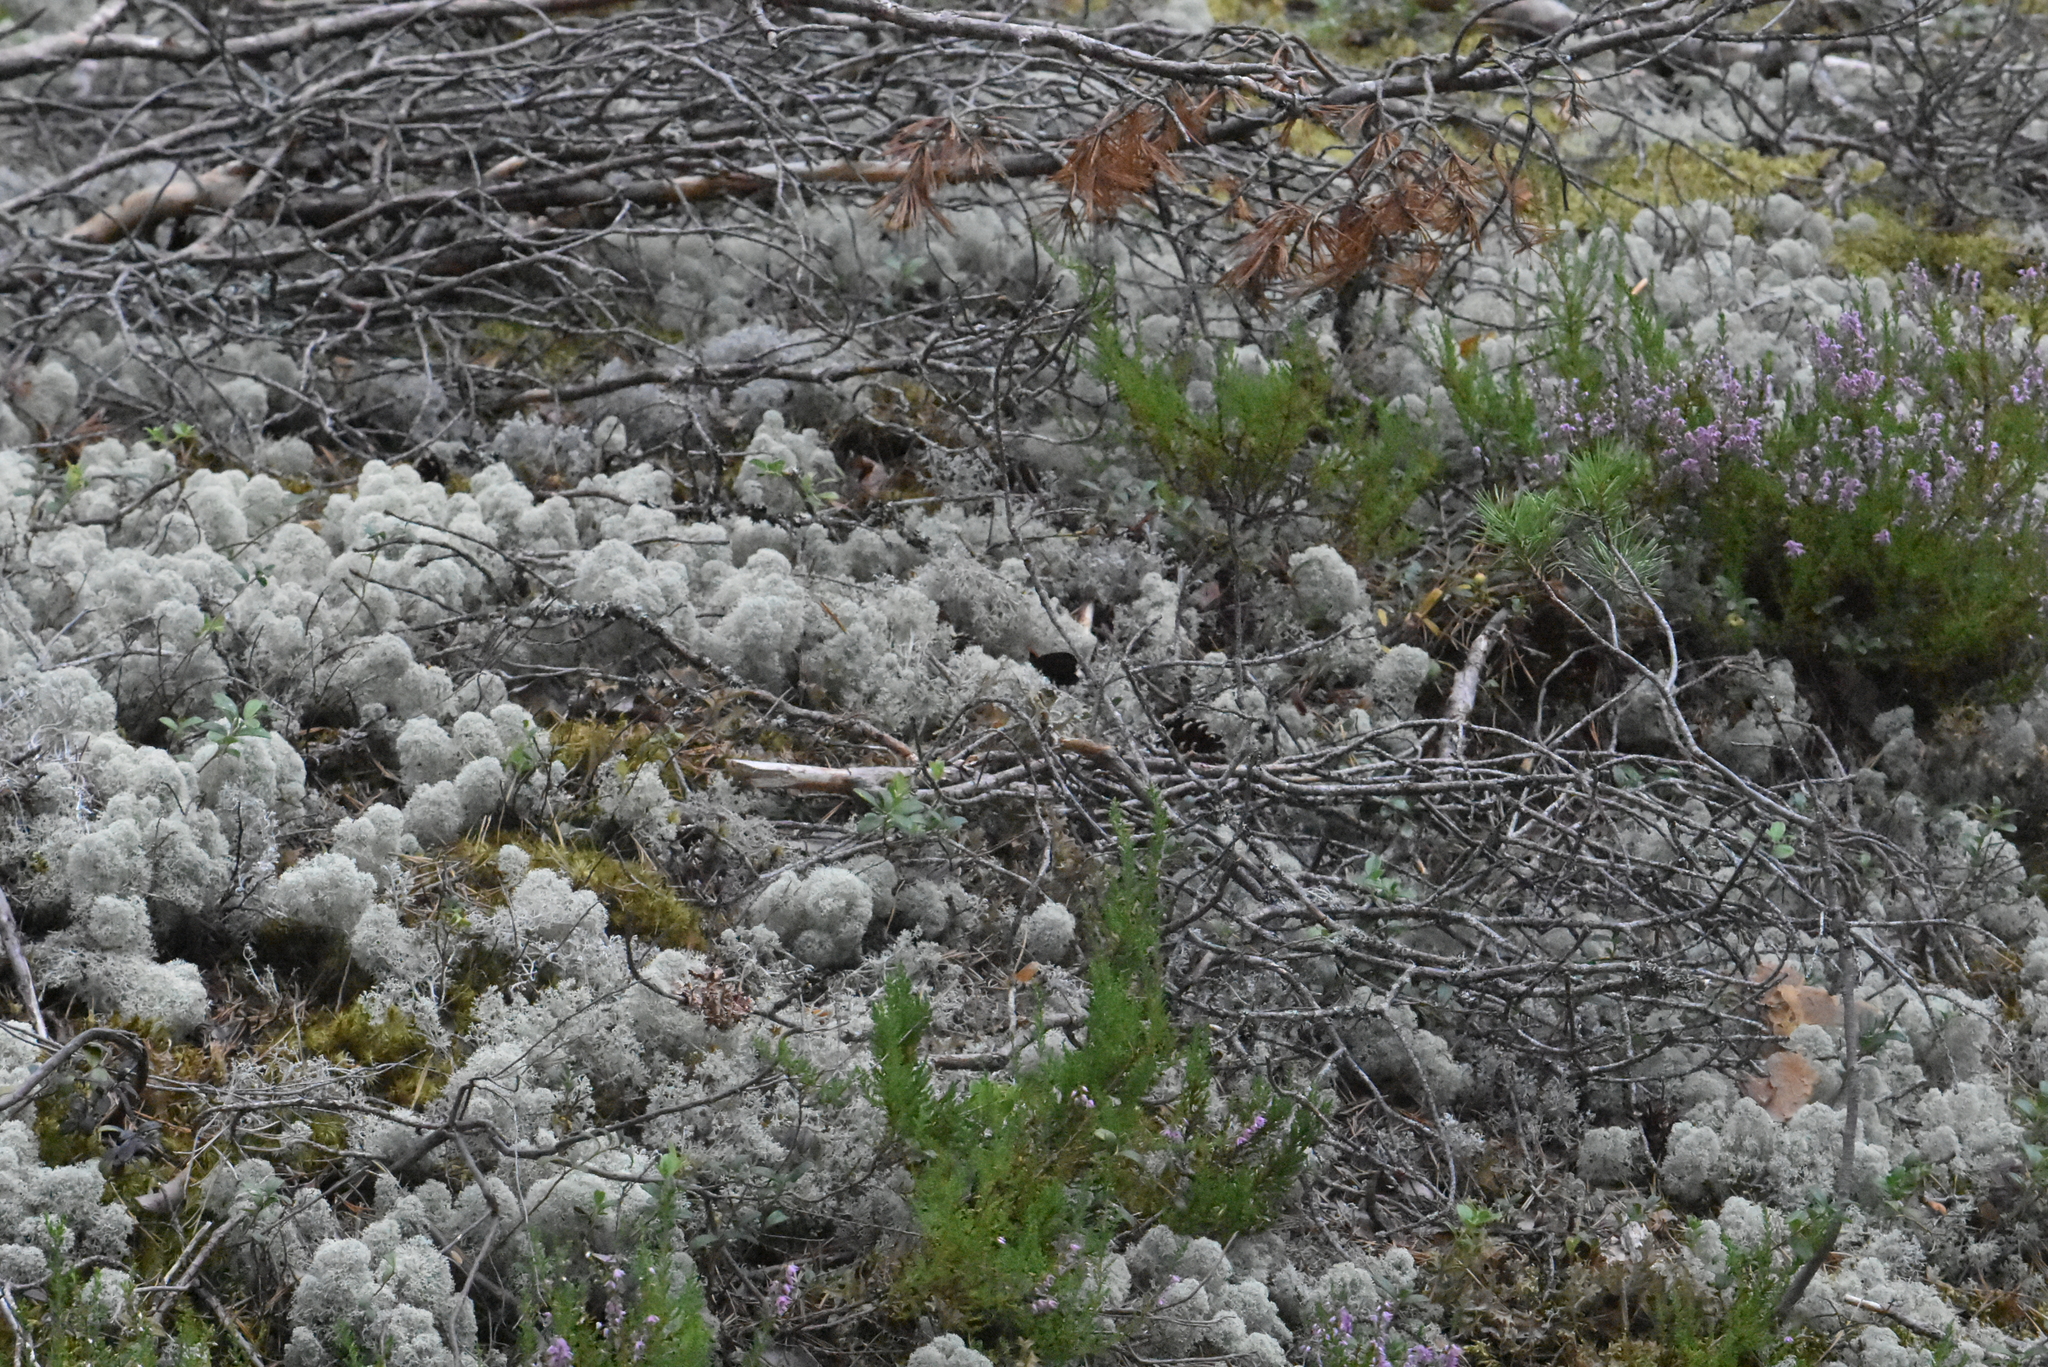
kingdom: Fungi
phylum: Ascomycota
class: Lecanoromycetes
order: Lecanorales
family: Cladoniaceae
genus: Cladonia
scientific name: Cladonia stellaris
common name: Star-tipped reindeer lichen
